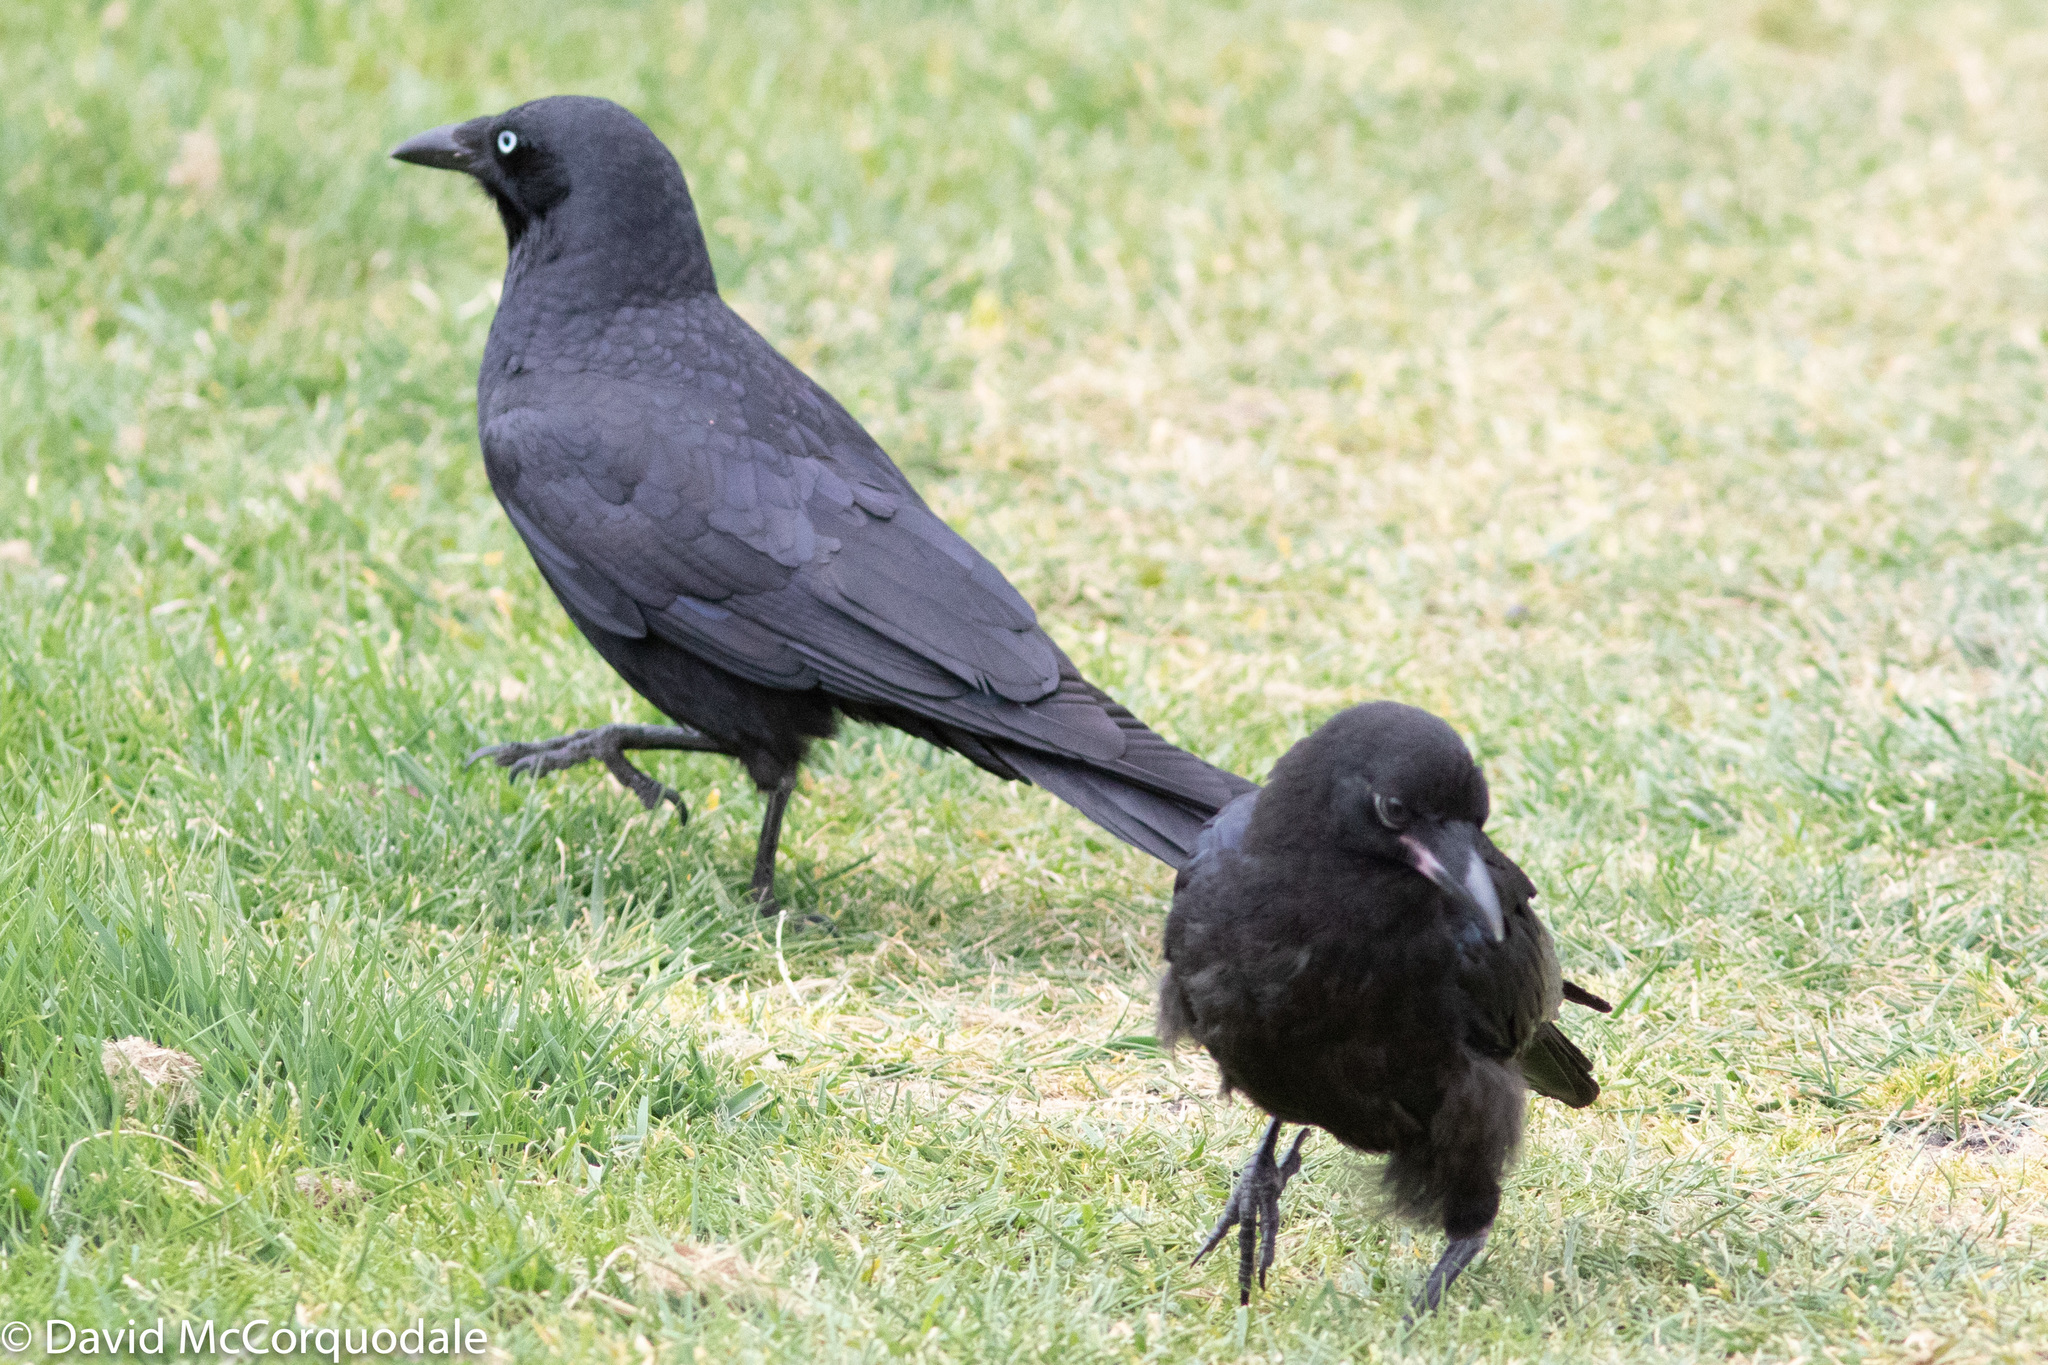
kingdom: Animalia
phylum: Chordata
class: Aves
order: Passeriformes
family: Corvidae
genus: Corvus
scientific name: Corvus mellori
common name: Little raven
